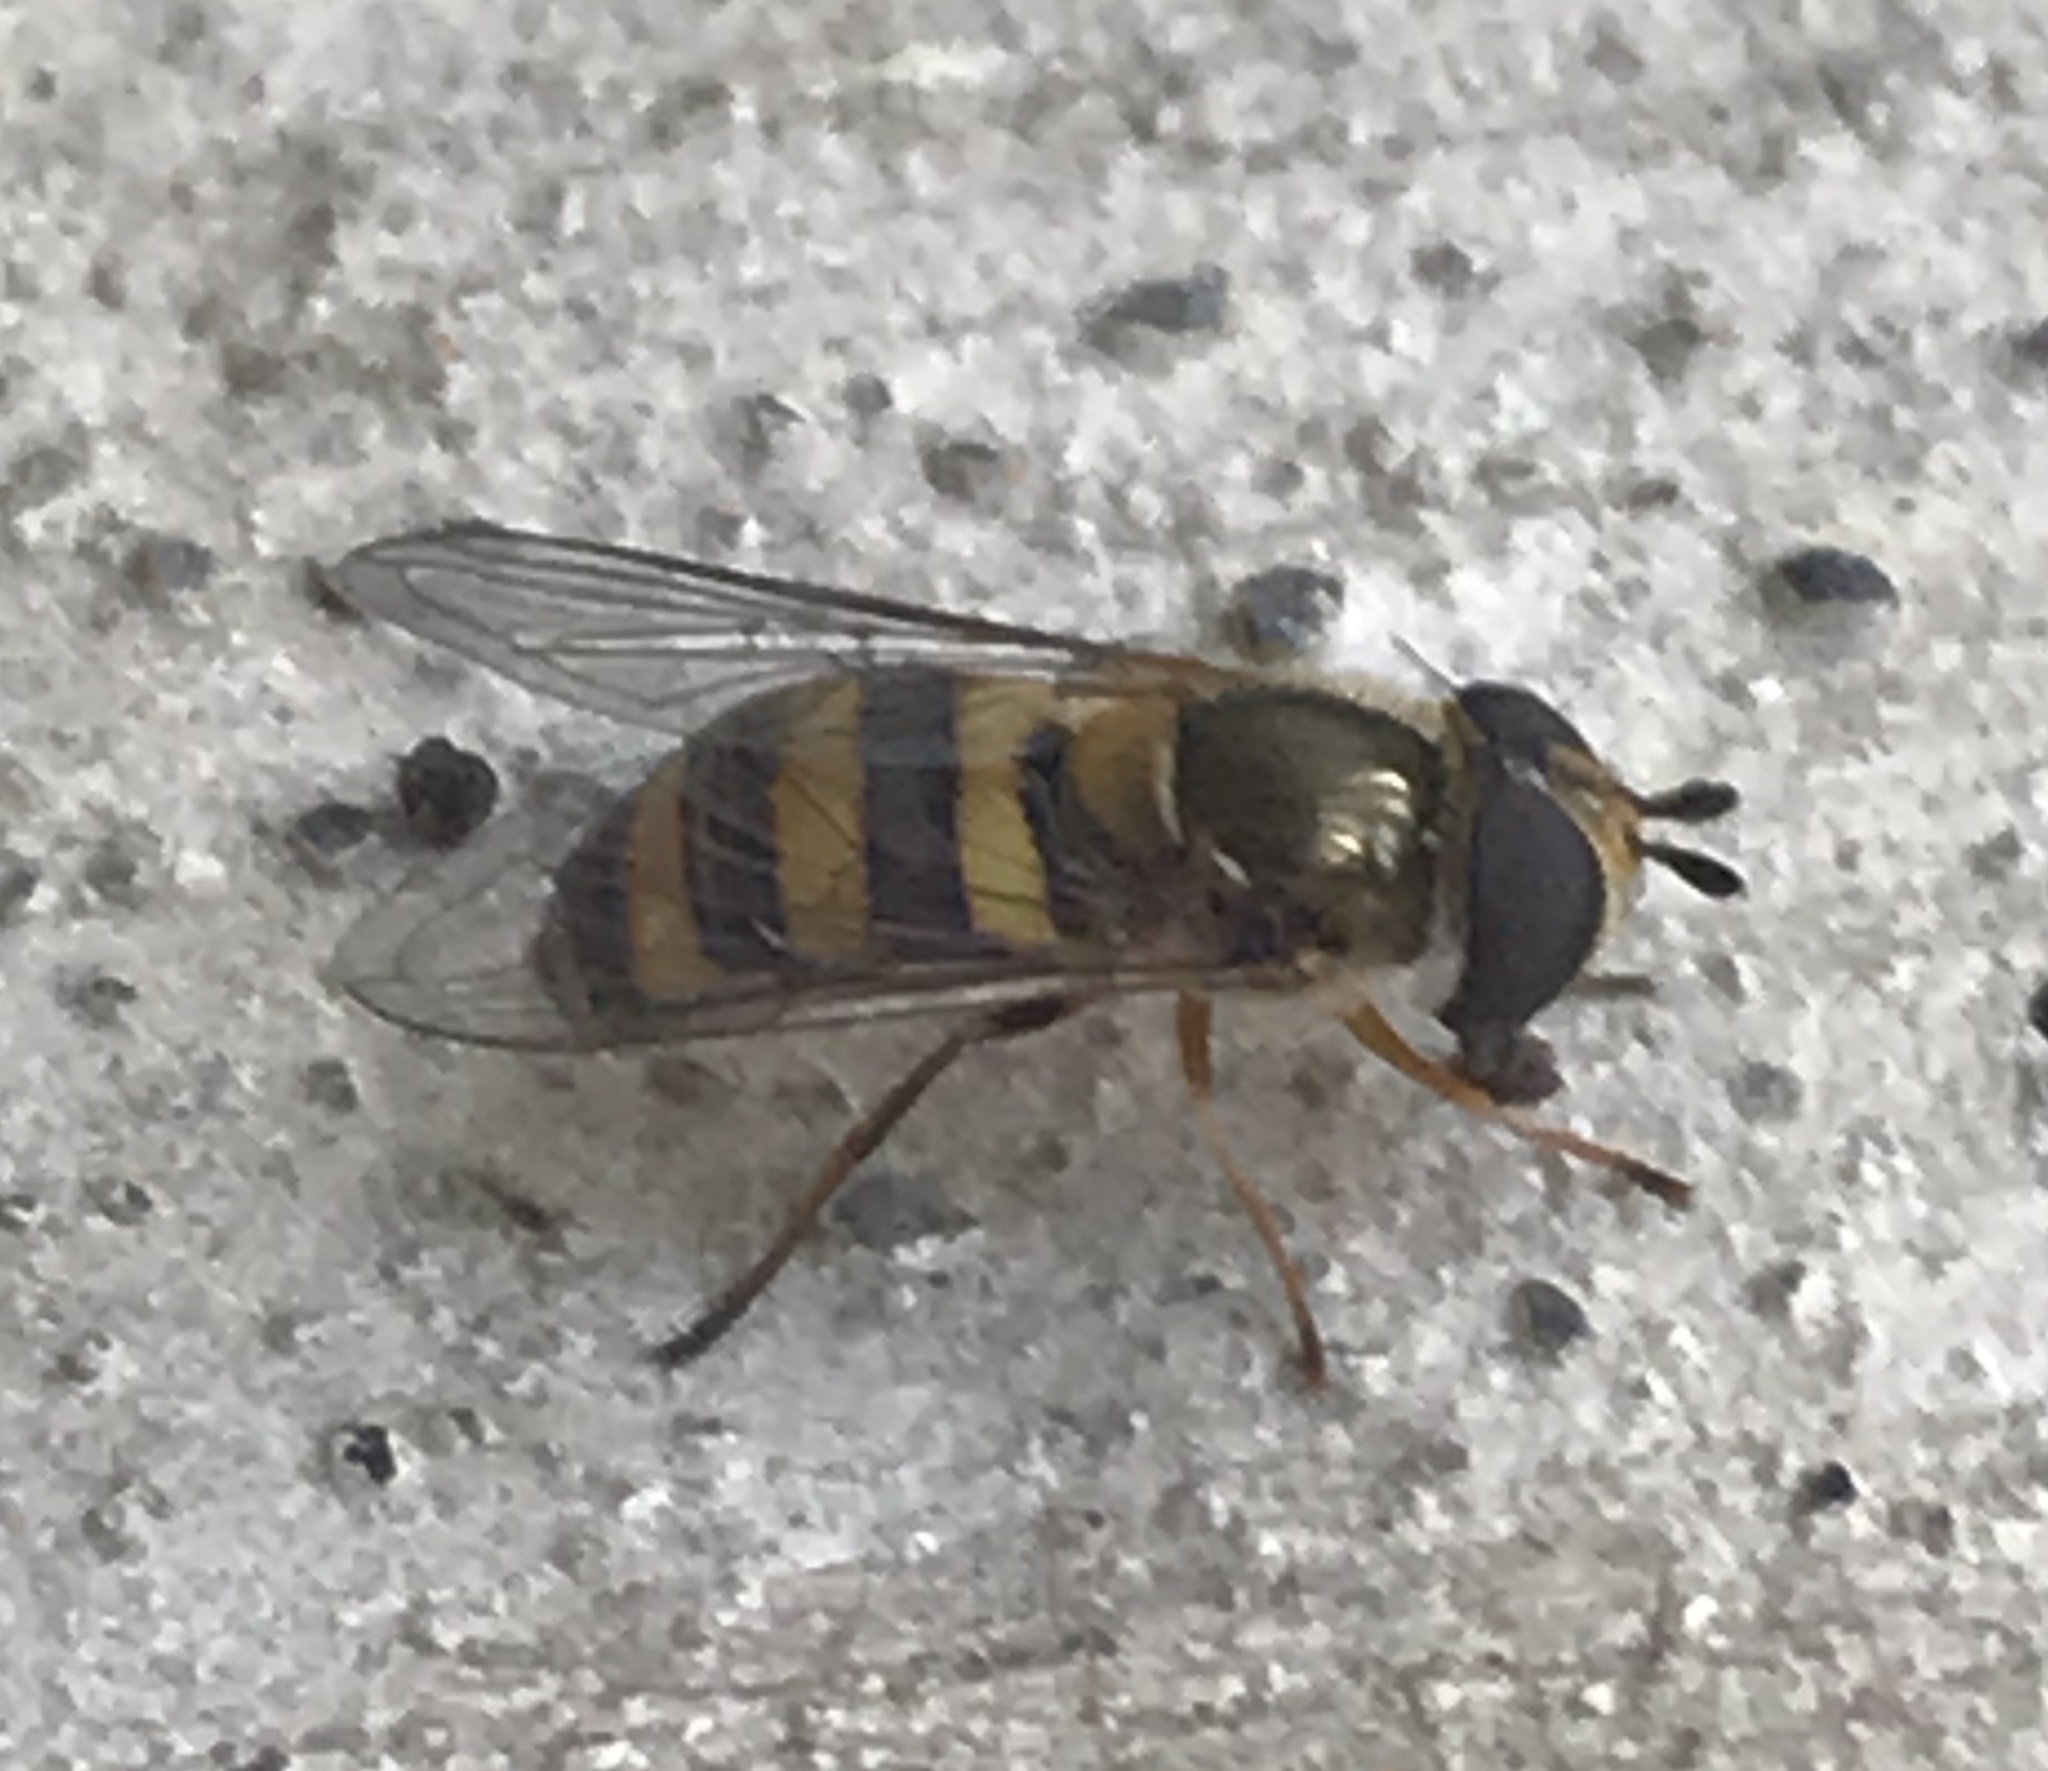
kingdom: Animalia
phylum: Arthropoda
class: Insecta
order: Diptera
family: Syrphidae
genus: Eupeodes
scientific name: Eupeodes
